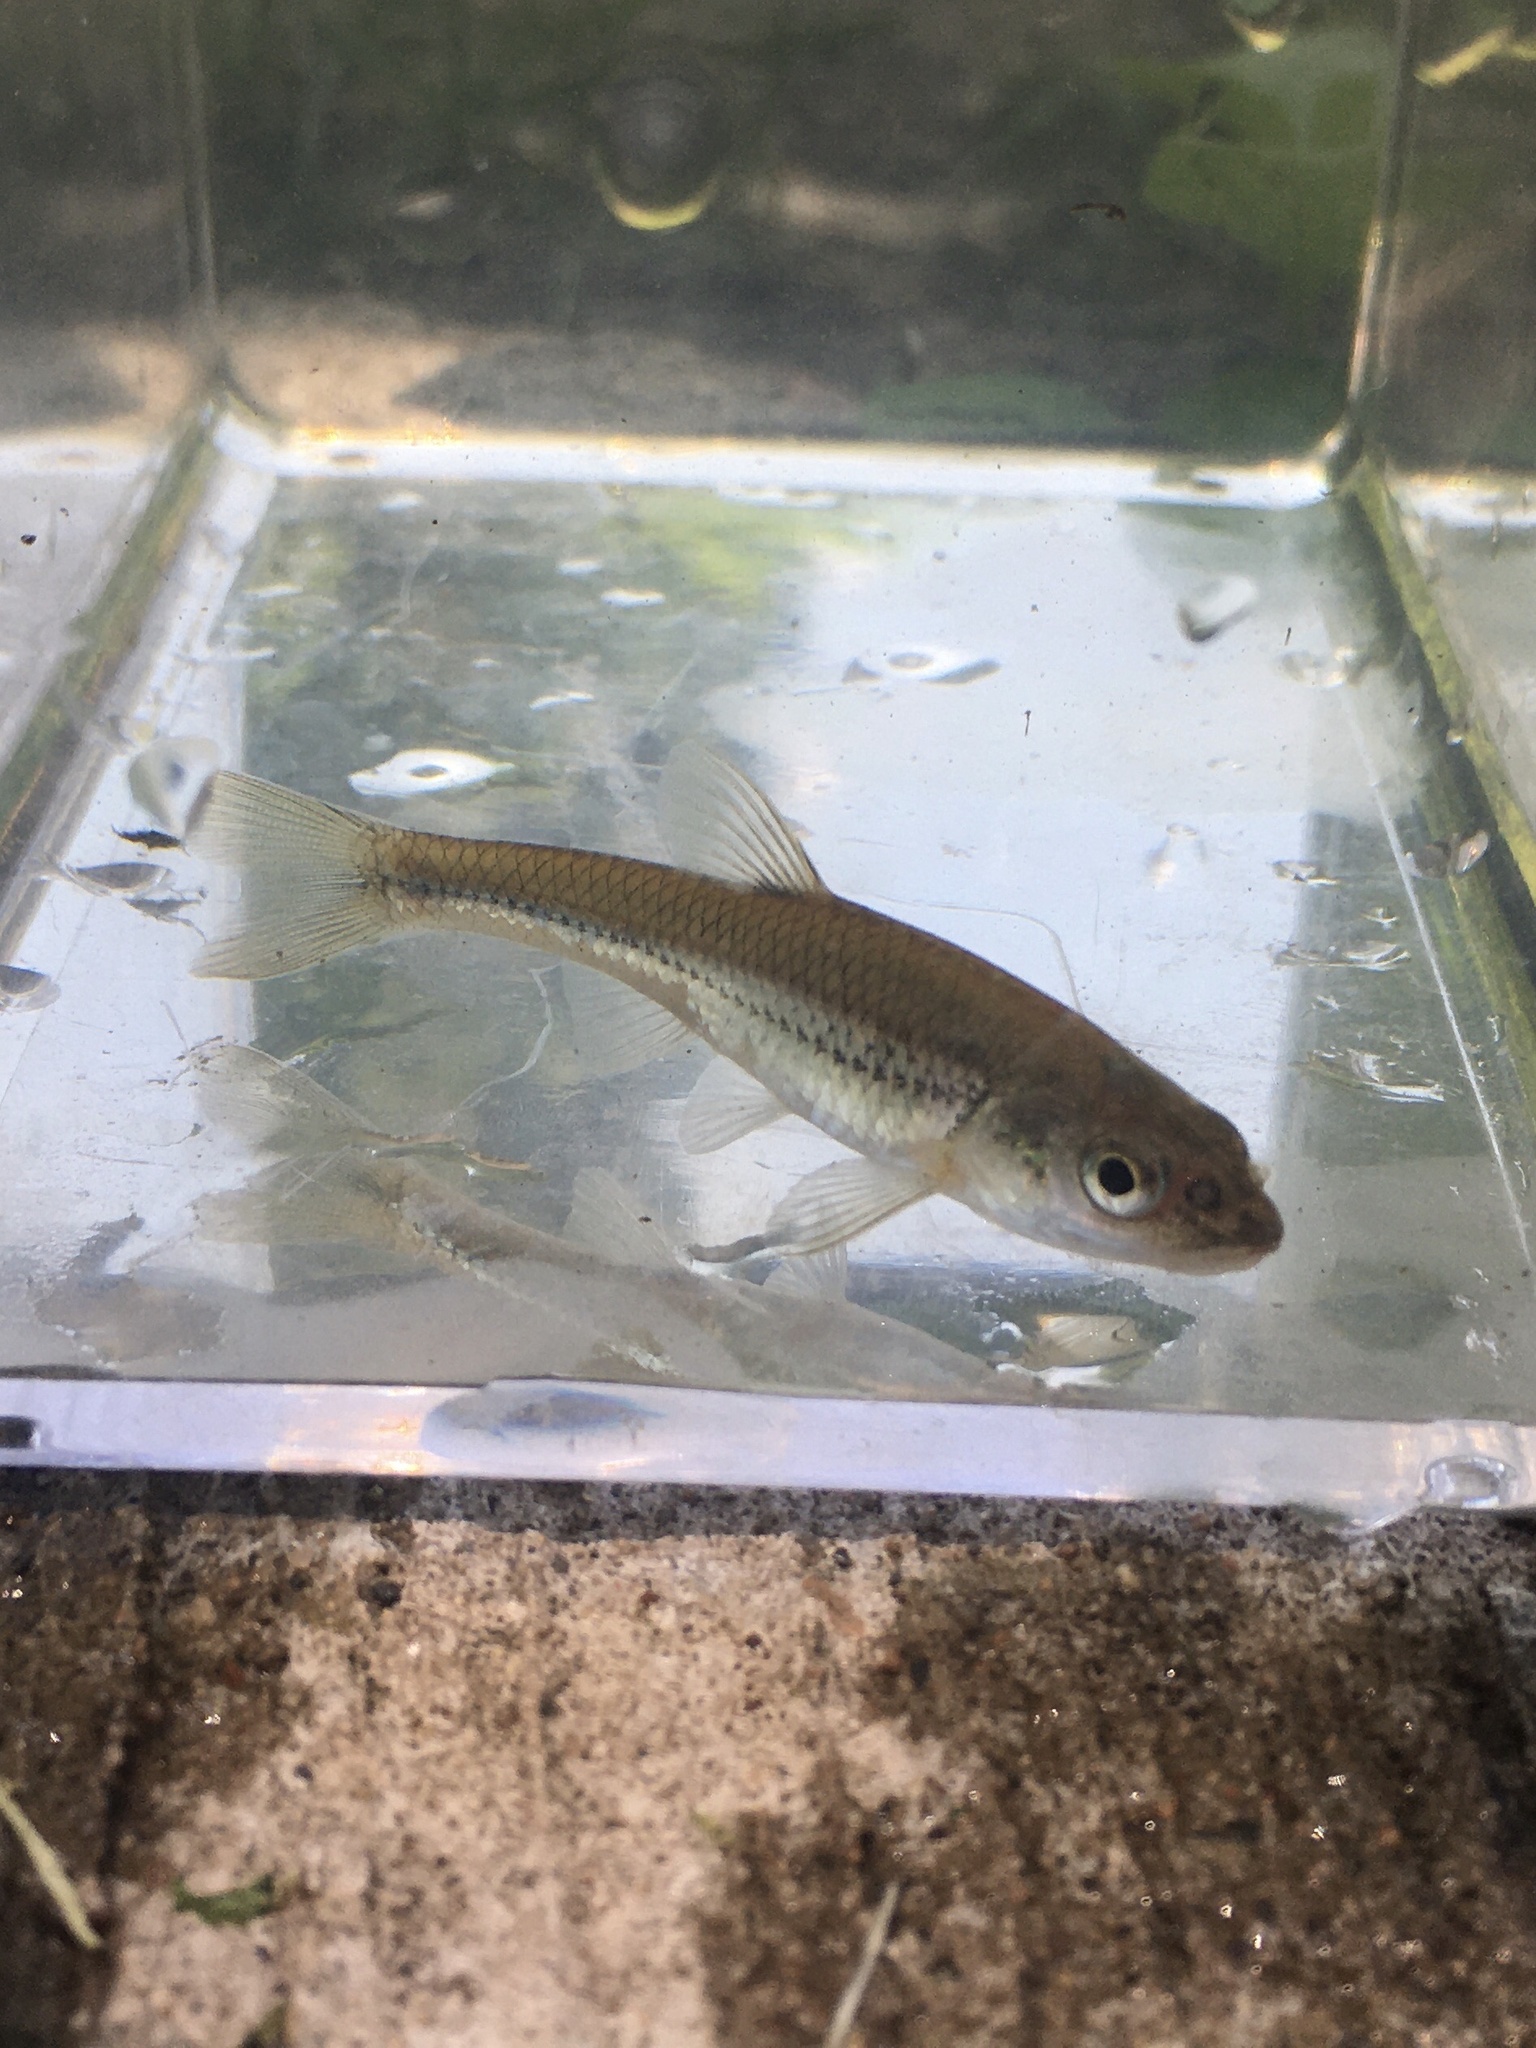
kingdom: Animalia
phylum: Chordata
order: Cypriniformes
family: Cyprinidae
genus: Ericymba
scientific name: Ericymba
